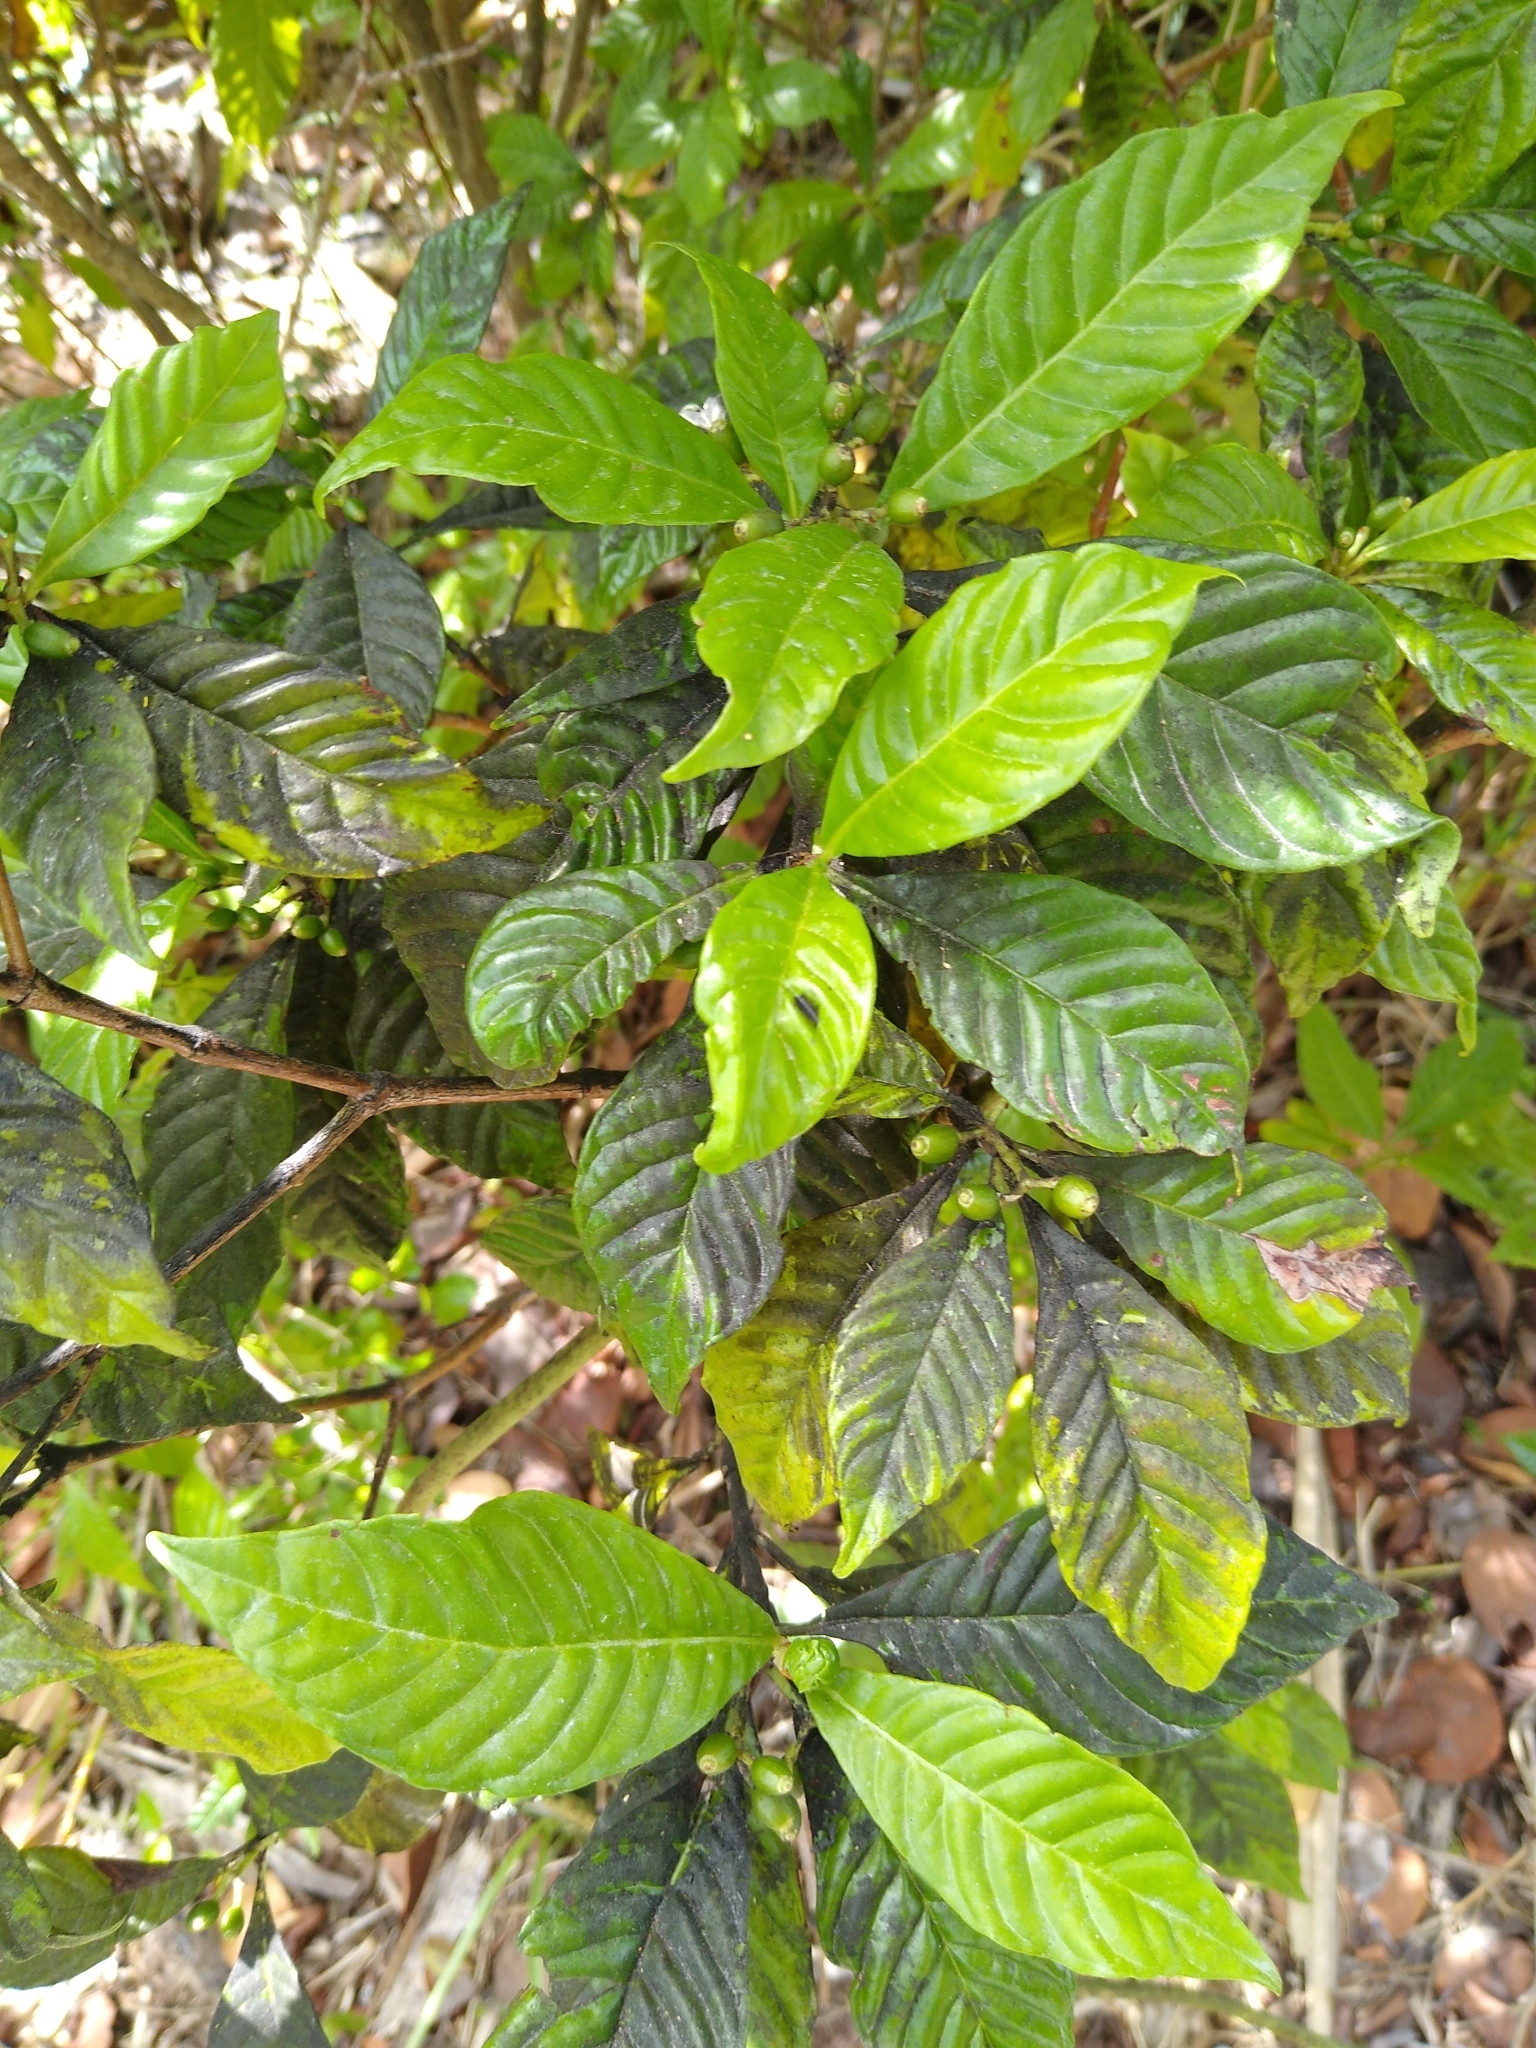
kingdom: Plantae
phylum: Tracheophyta
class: Magnoliopsida
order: Gentianales
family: Rubiaceae
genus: Psychotria
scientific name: Psychotria nervosa
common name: Bastard cankerberry
